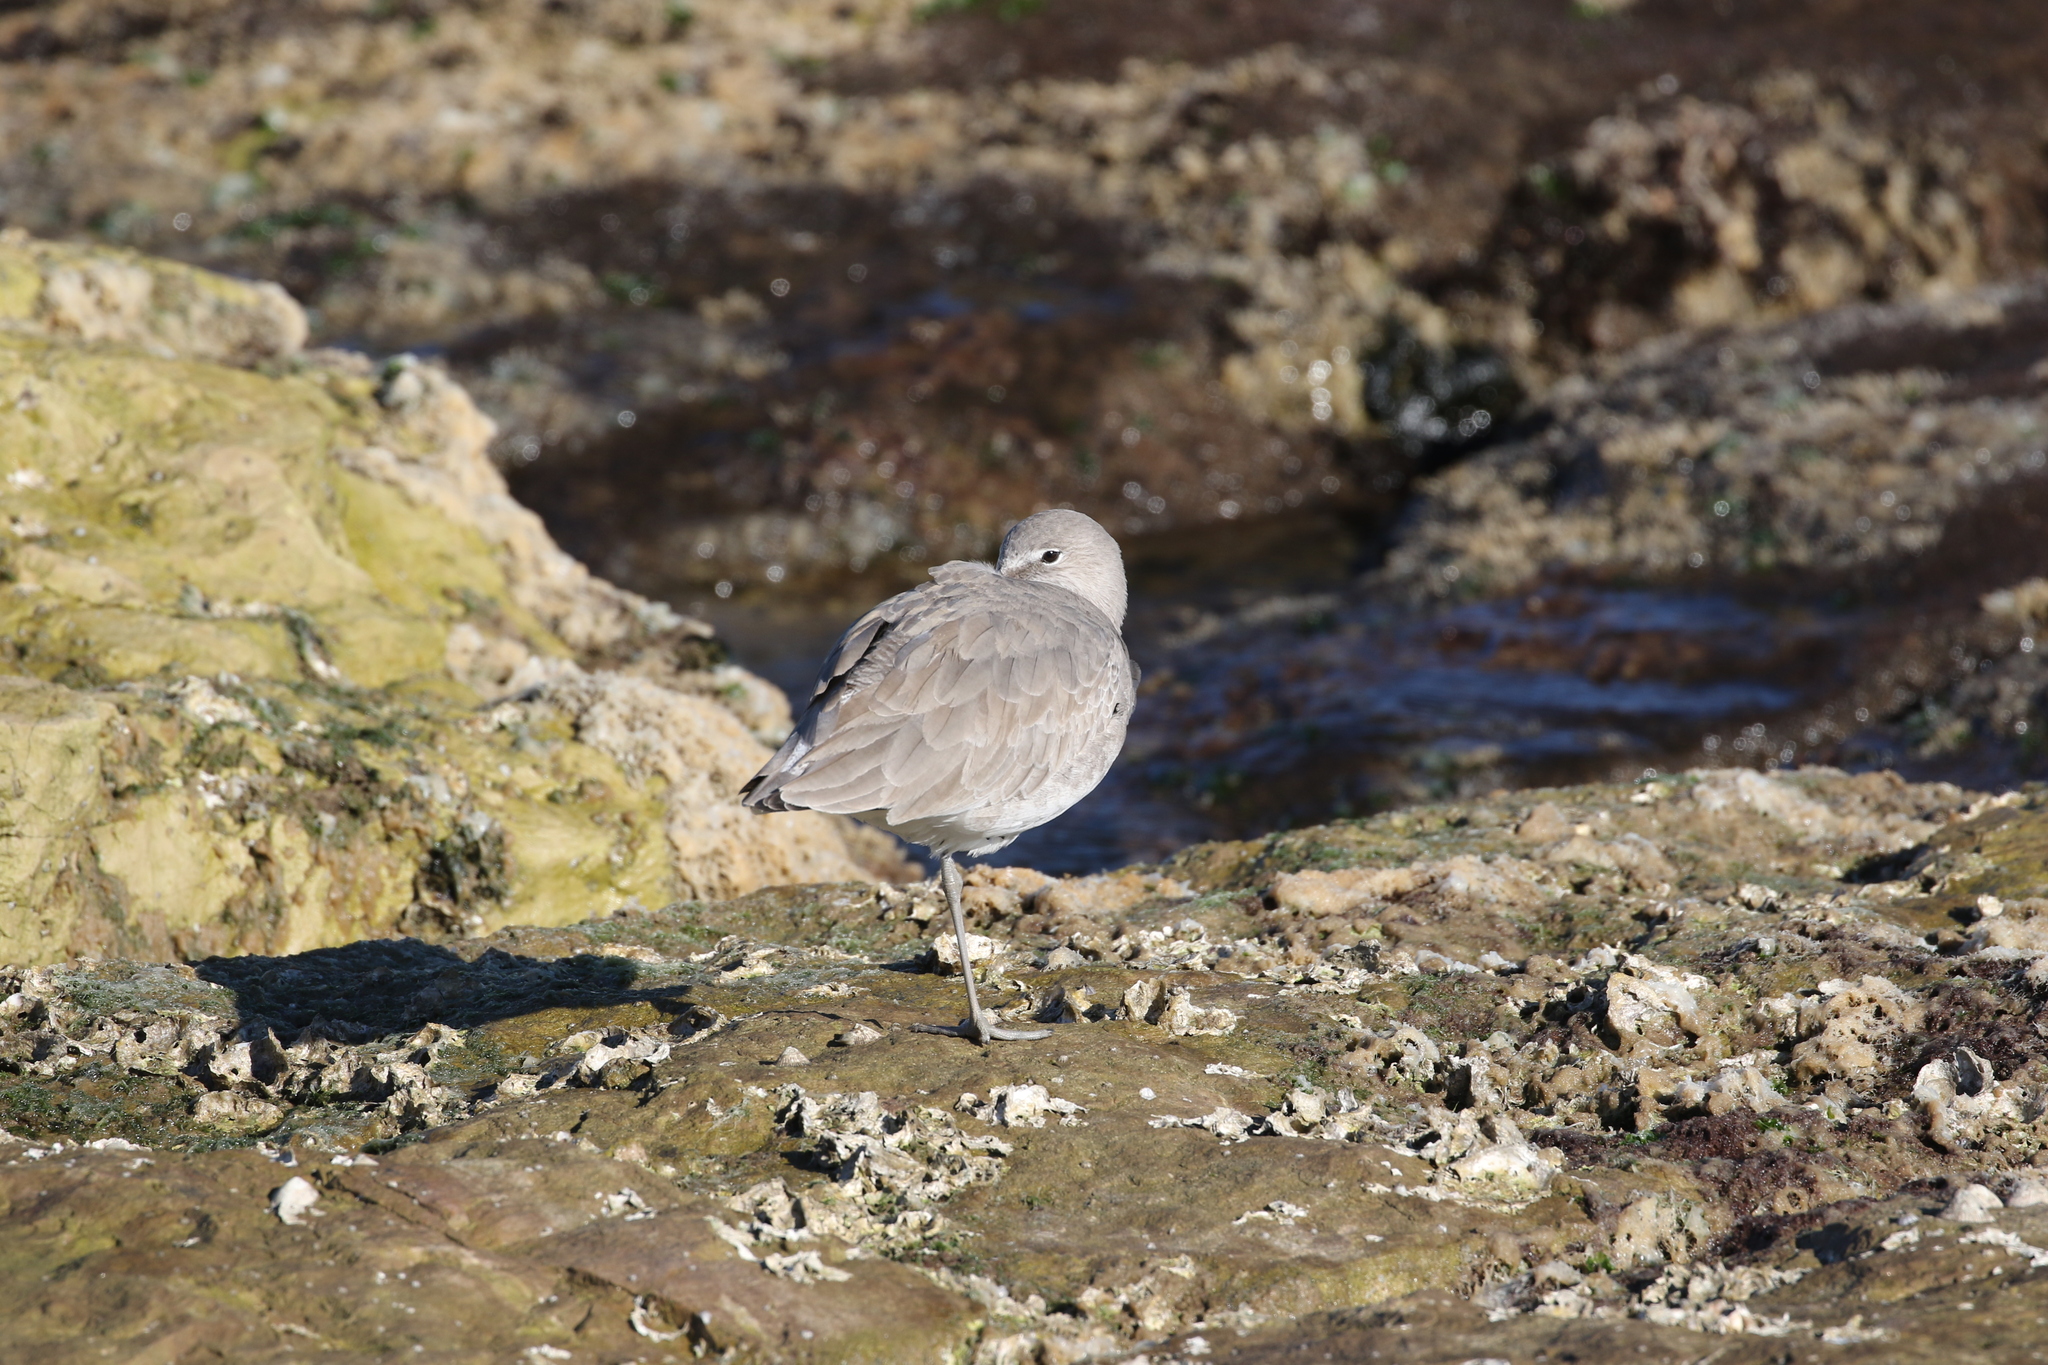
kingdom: Animalia
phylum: Chordata
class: Aves
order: Charadriiformes
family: Scolopacidae
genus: Tringa
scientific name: Tringa semipalmata
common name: Willet
